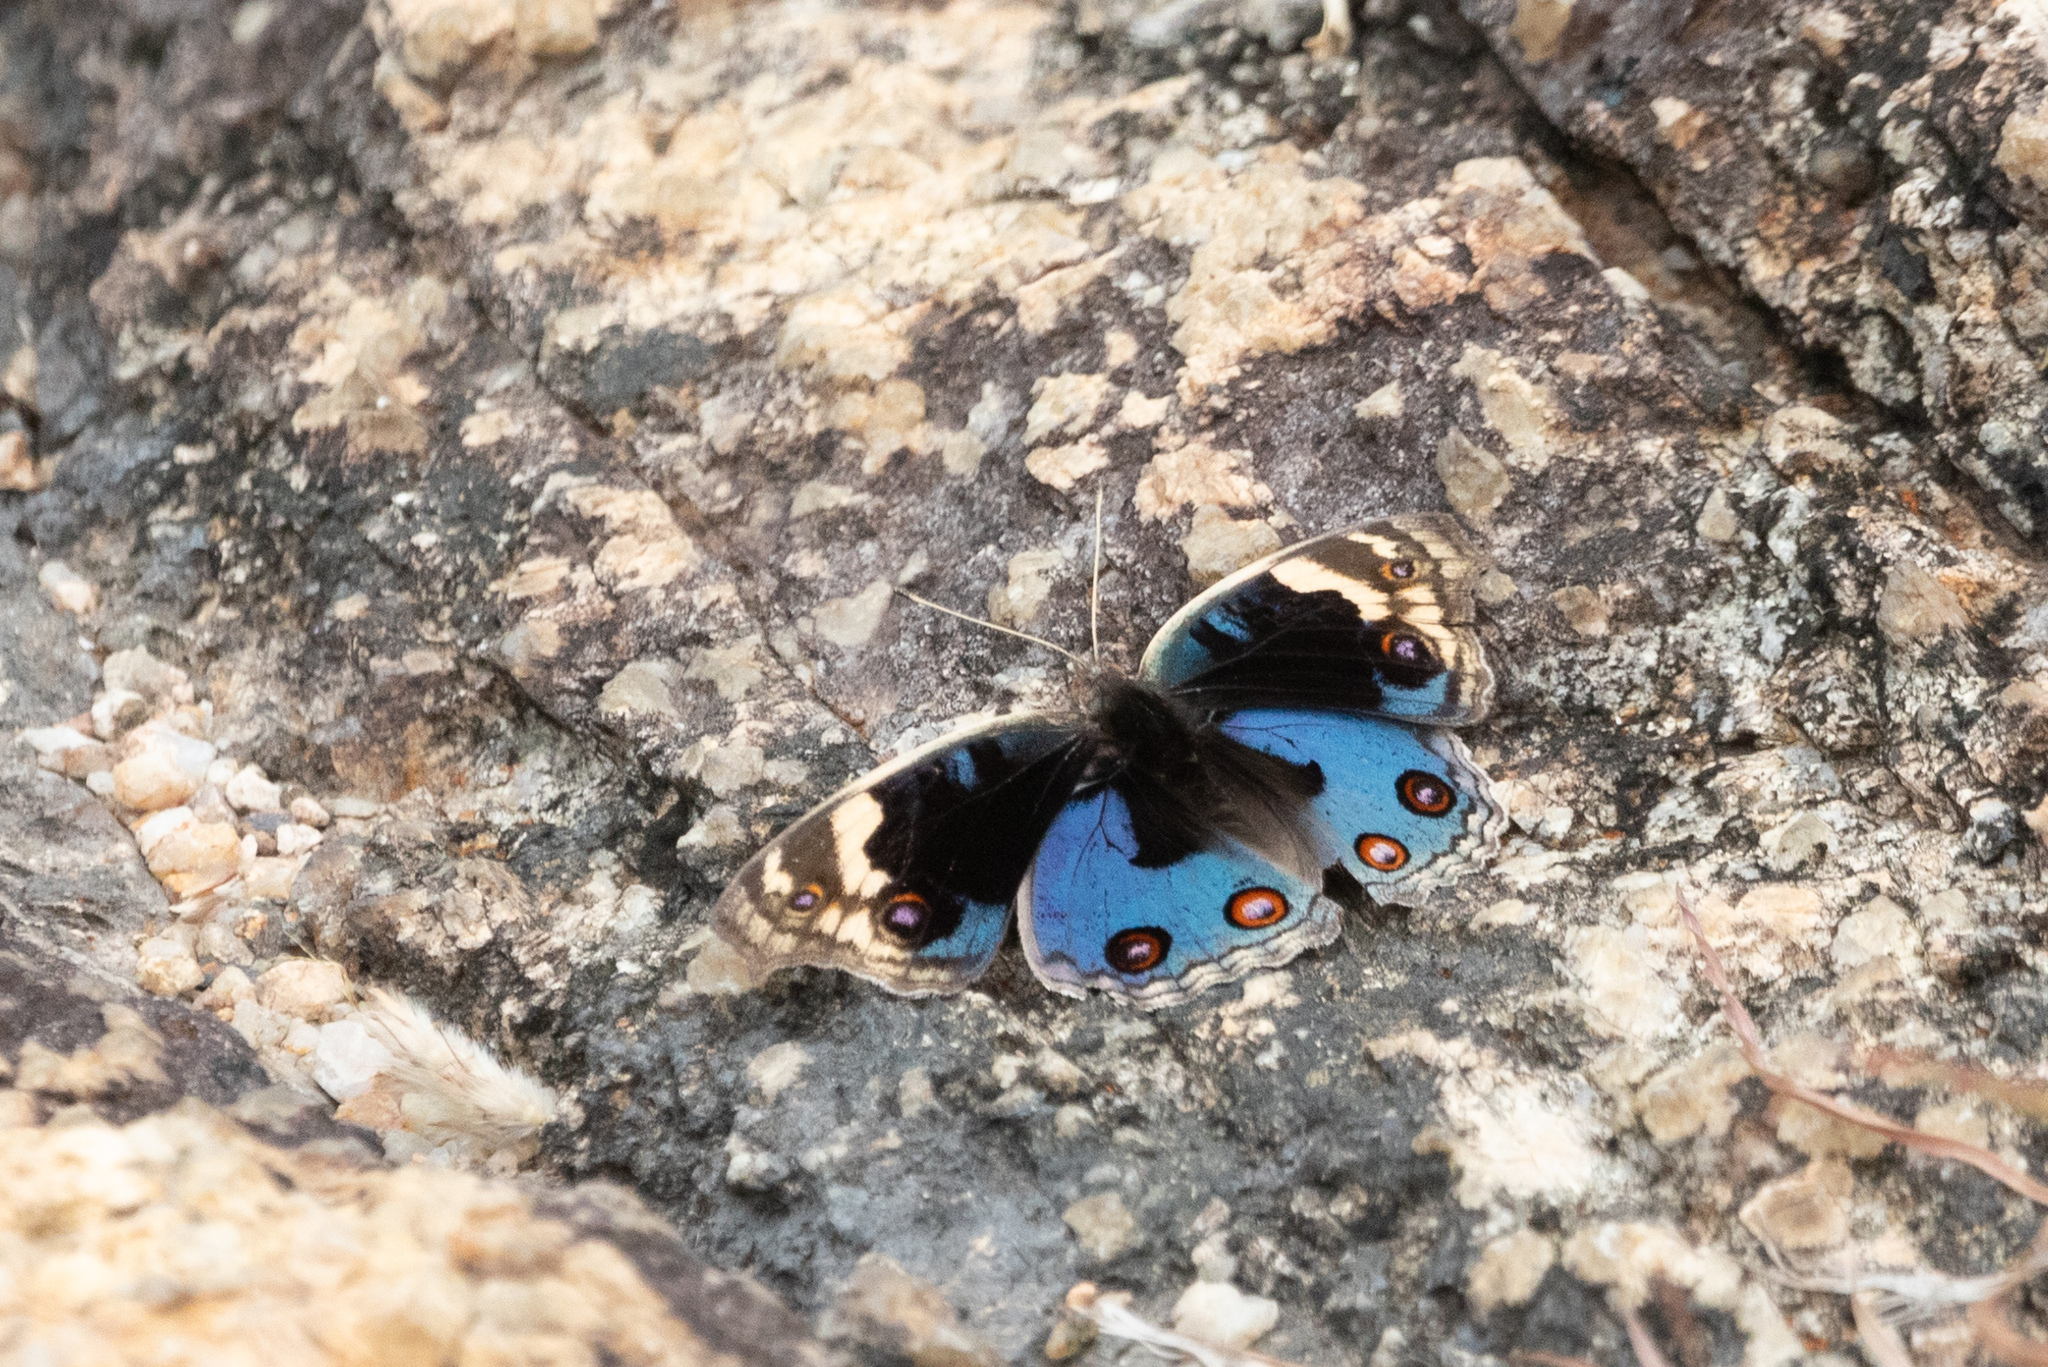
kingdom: Animalia
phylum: Arthropoda
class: Insecta
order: Lepidoptera
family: Nymphalidae
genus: Junonia
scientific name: Junonia orithya
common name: Blue pansy
